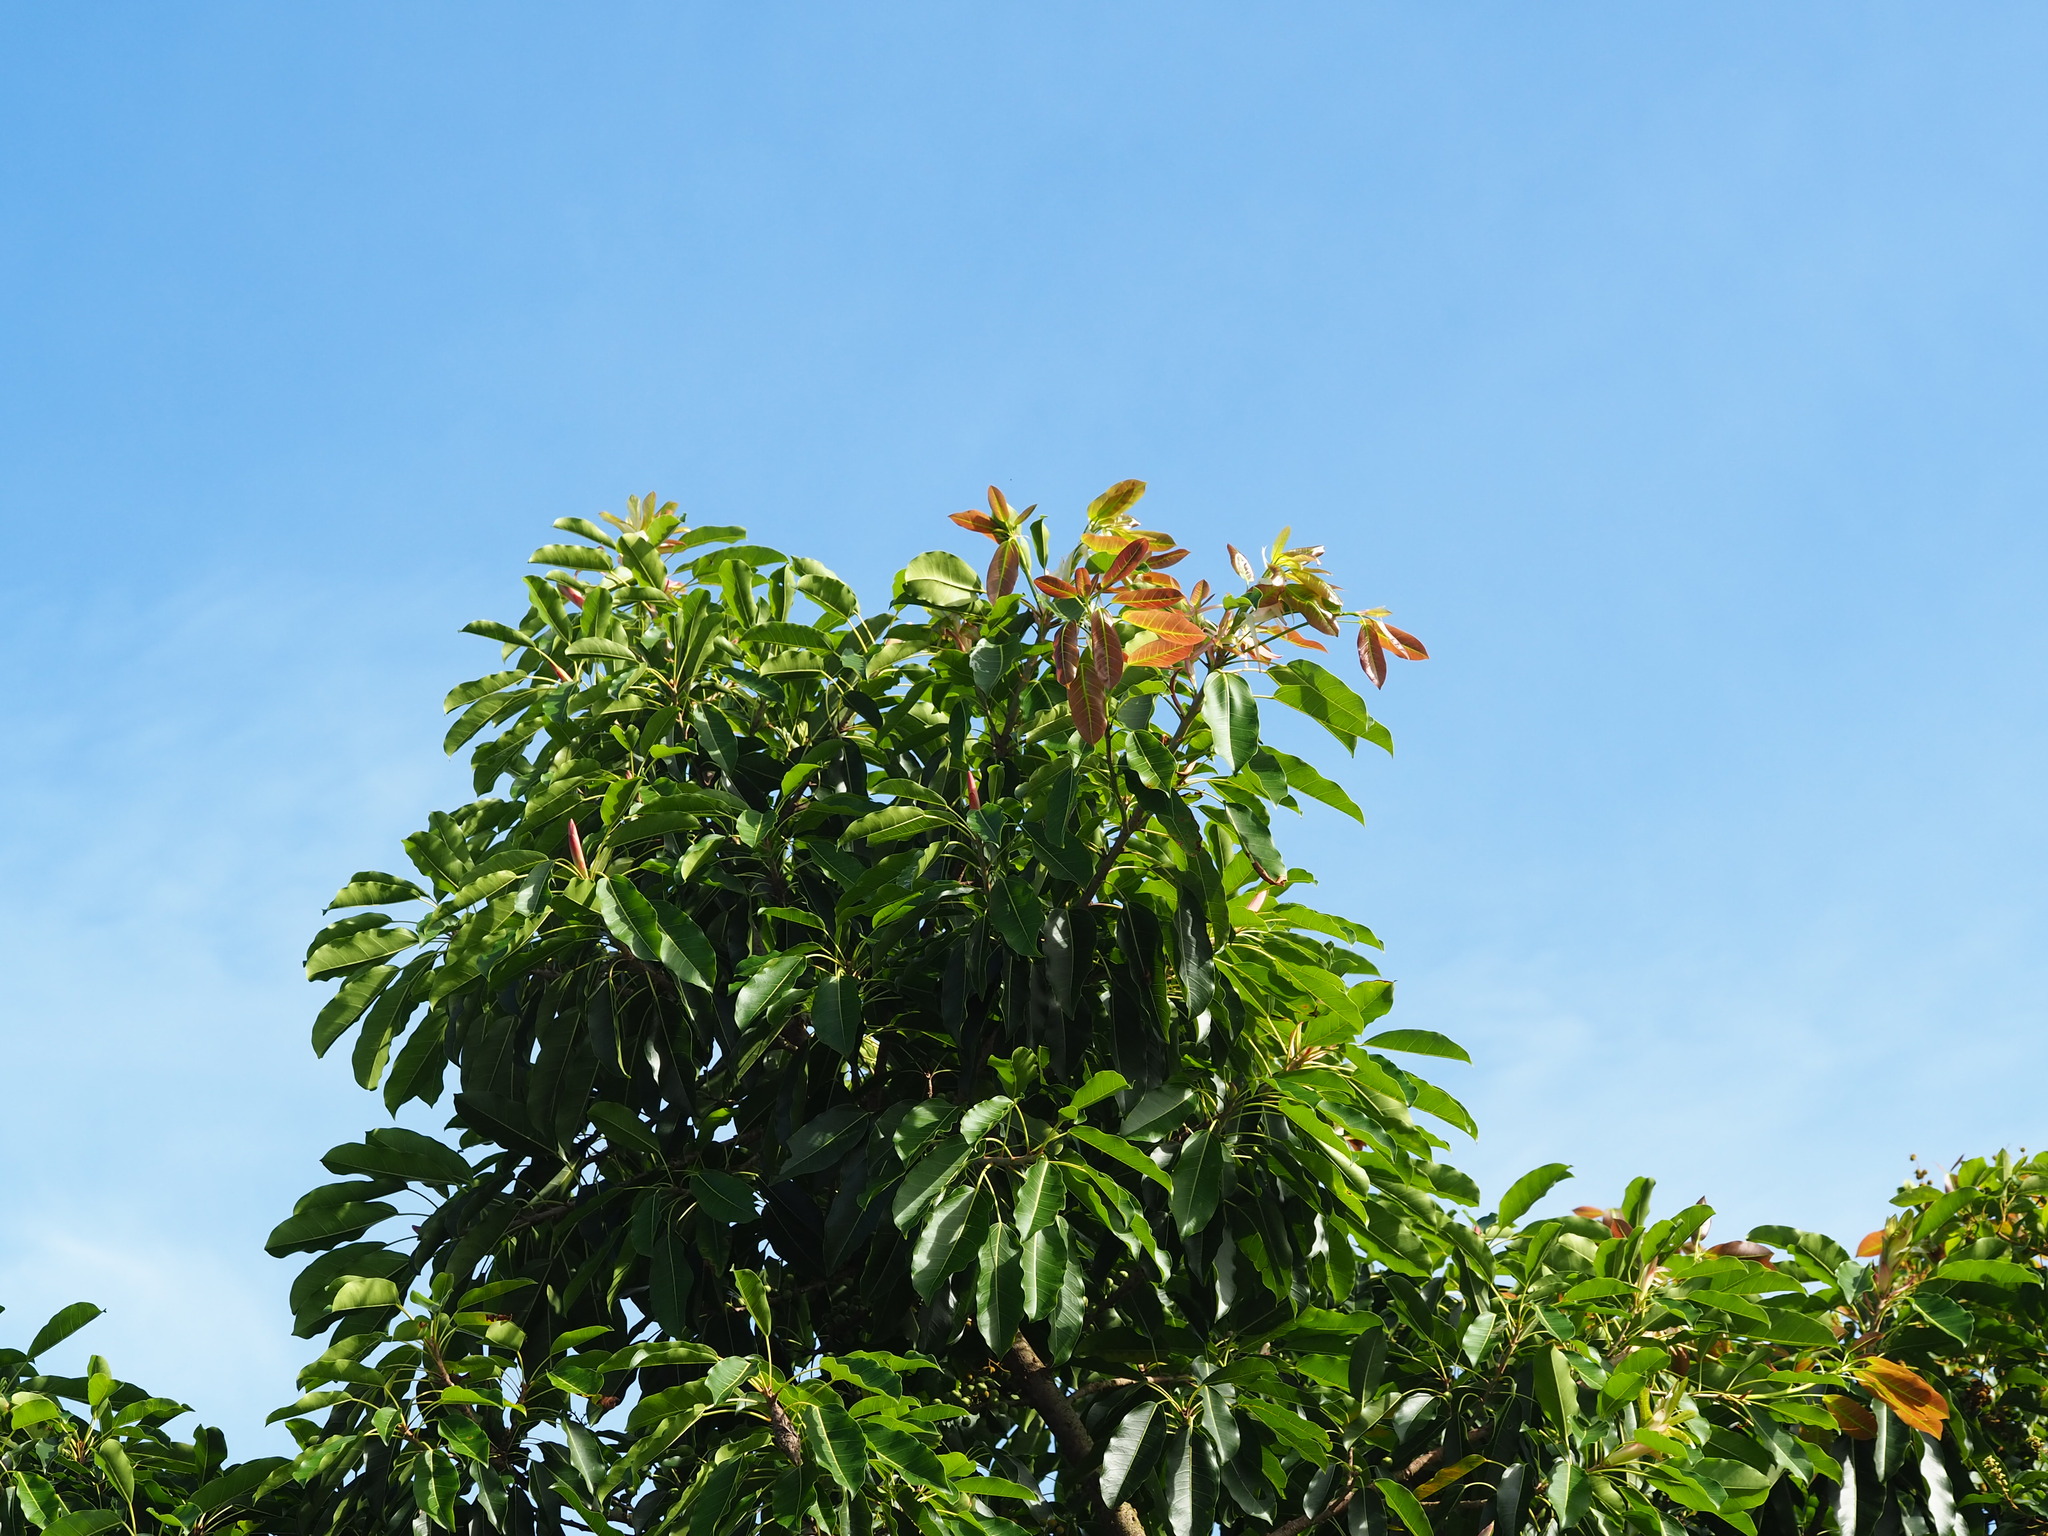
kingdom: Plantae
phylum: Tracheophyta
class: Magnoliopsida
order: Rosales
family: Moraceae
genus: Ficus
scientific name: Ficus subpisocarpa
